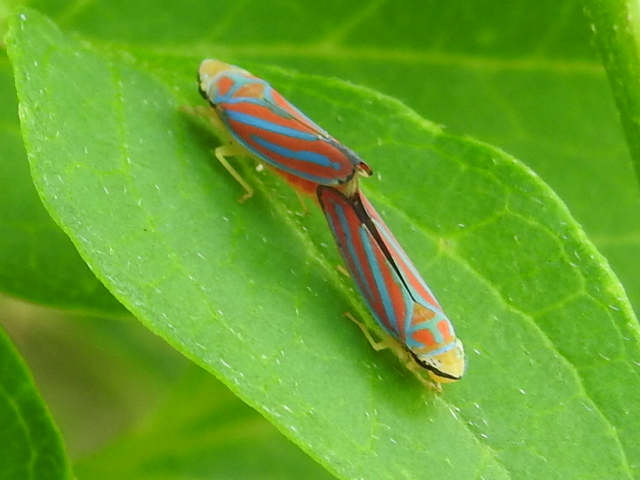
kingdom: Animalia
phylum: Arthropoda
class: Insecta
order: Hemiptera
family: Cicadellidae
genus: Graphocephala
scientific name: Graphocephala coccinea
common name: Candy-striped leafhopper
